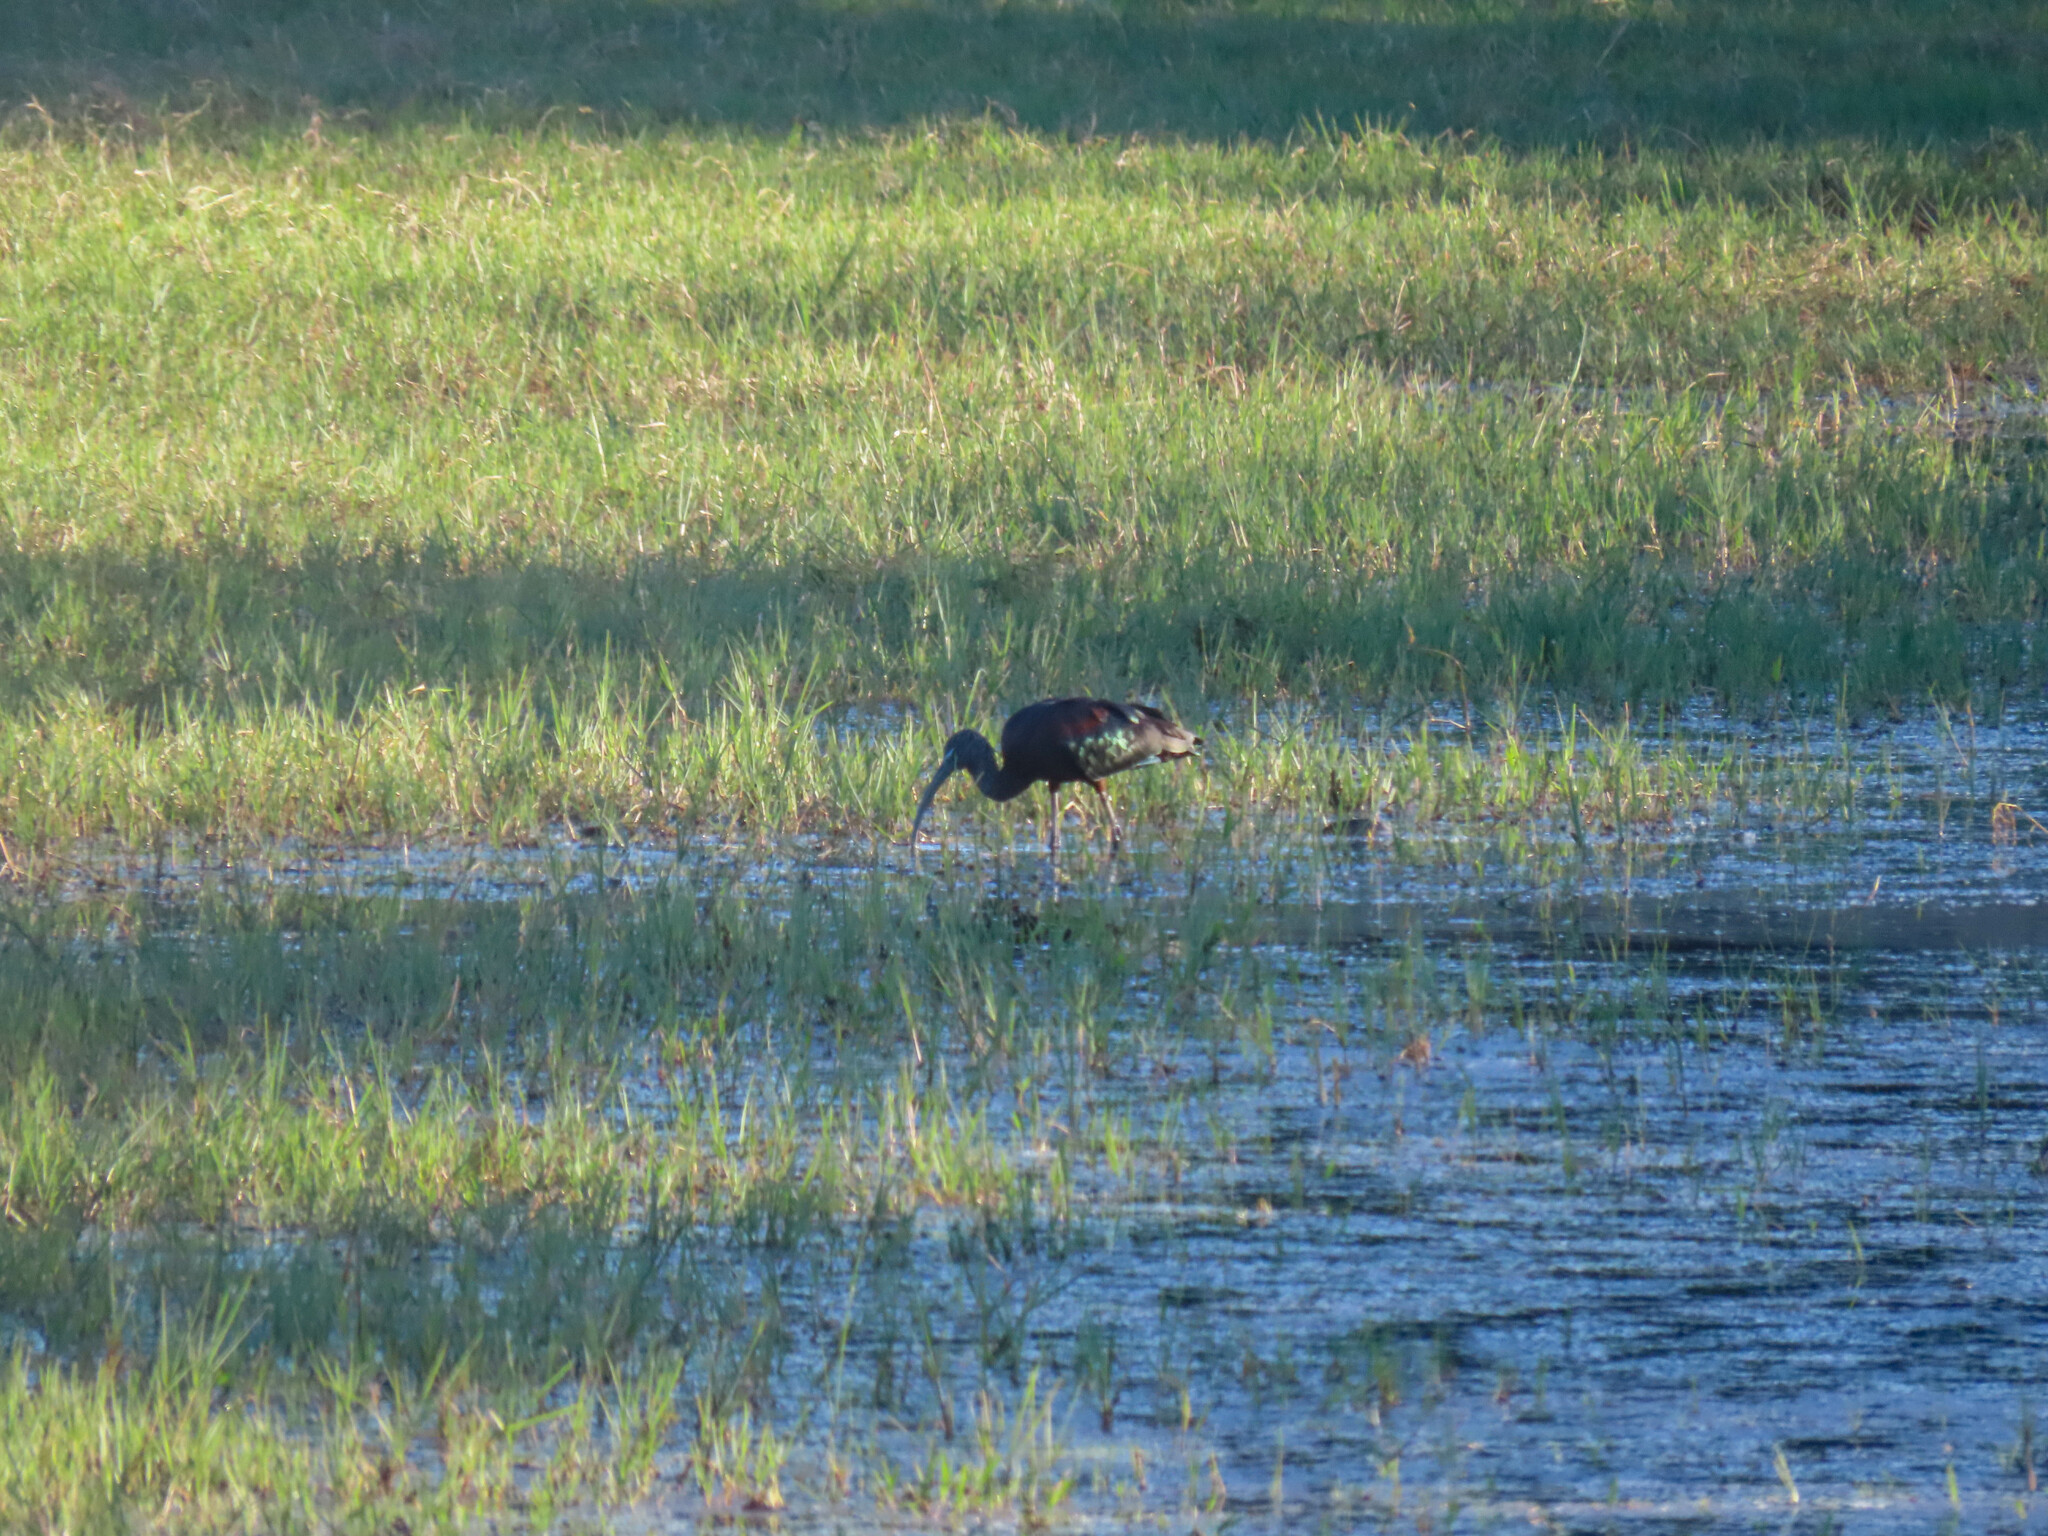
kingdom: Animalia
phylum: Chordata
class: Aves
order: Pelecaniformes
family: Threskiornithidae
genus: Plegadis
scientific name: Plegadis falcinellus
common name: Glossy ibis
